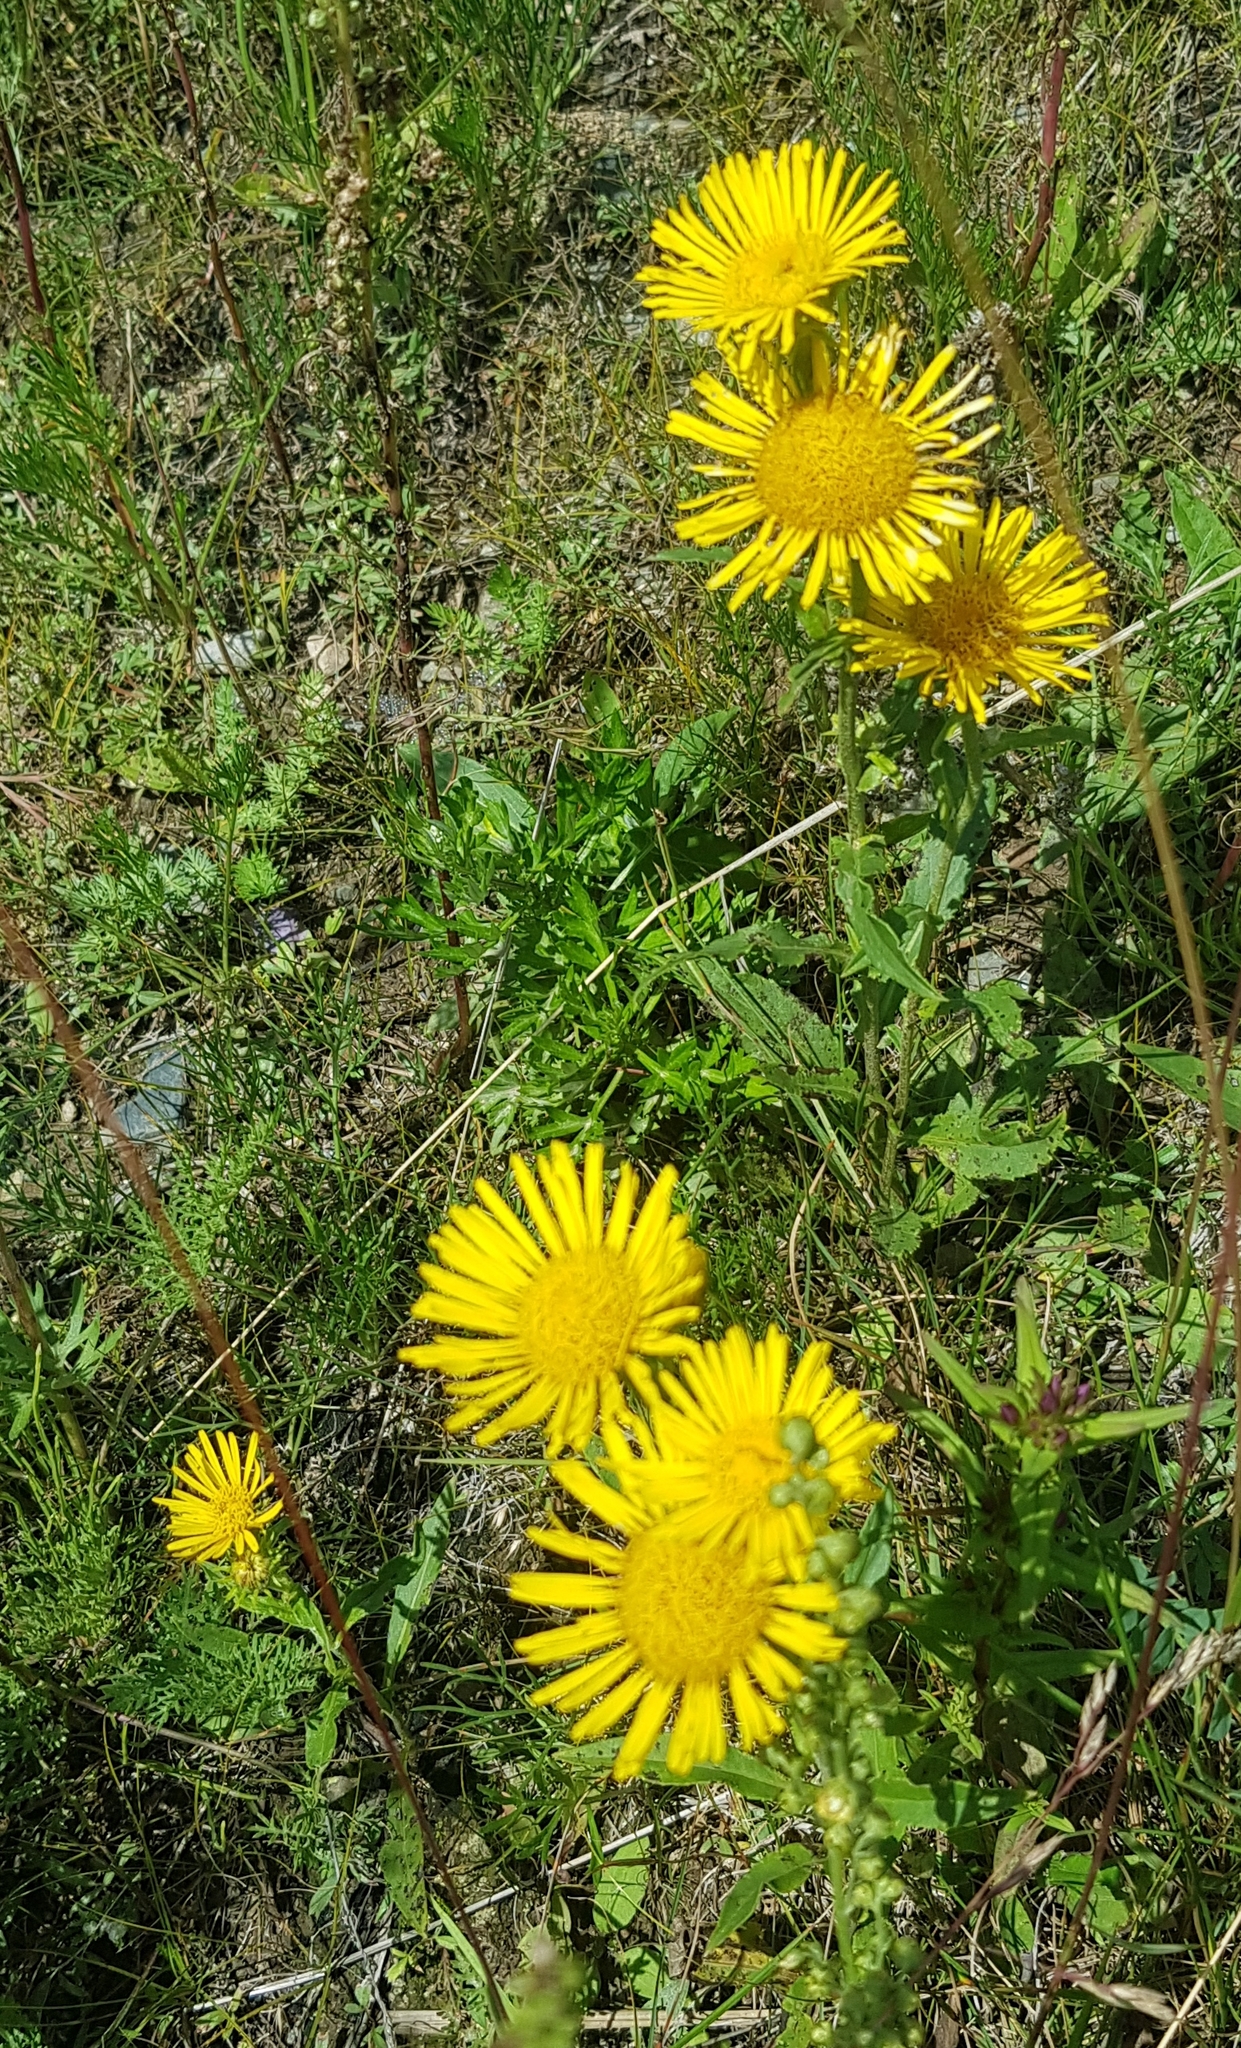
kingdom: Plantae
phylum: Tracheophyta
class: Magnoliopsida
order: Asterales
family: Asteraceae
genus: Pentanema
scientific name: Pentanema britannicum
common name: British elecampane
